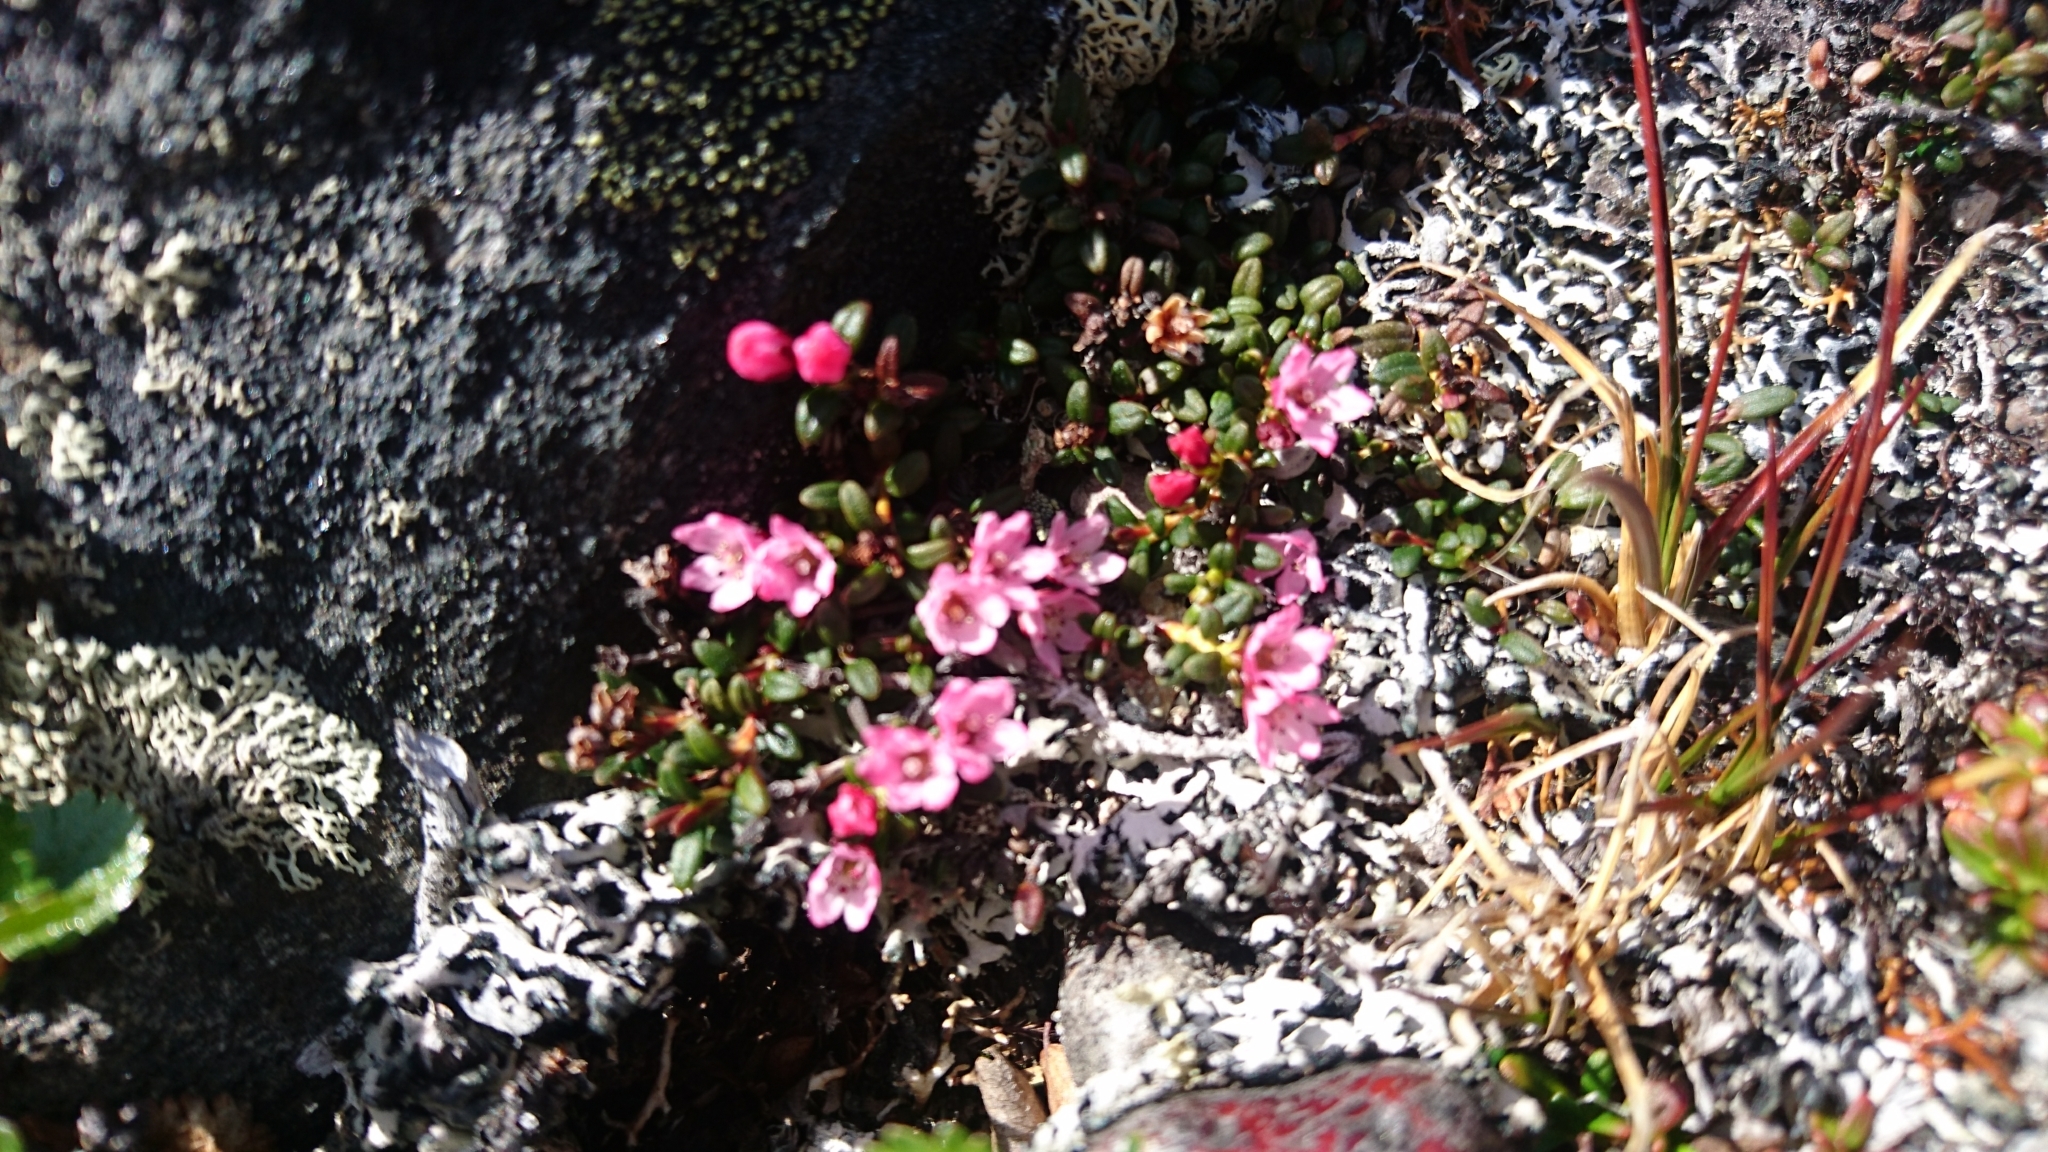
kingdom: Plantae
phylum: Tracheophyta
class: Magnoliopsida
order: Ericales
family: Ericaceae
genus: Kalmia
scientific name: Kalmia procumbens
